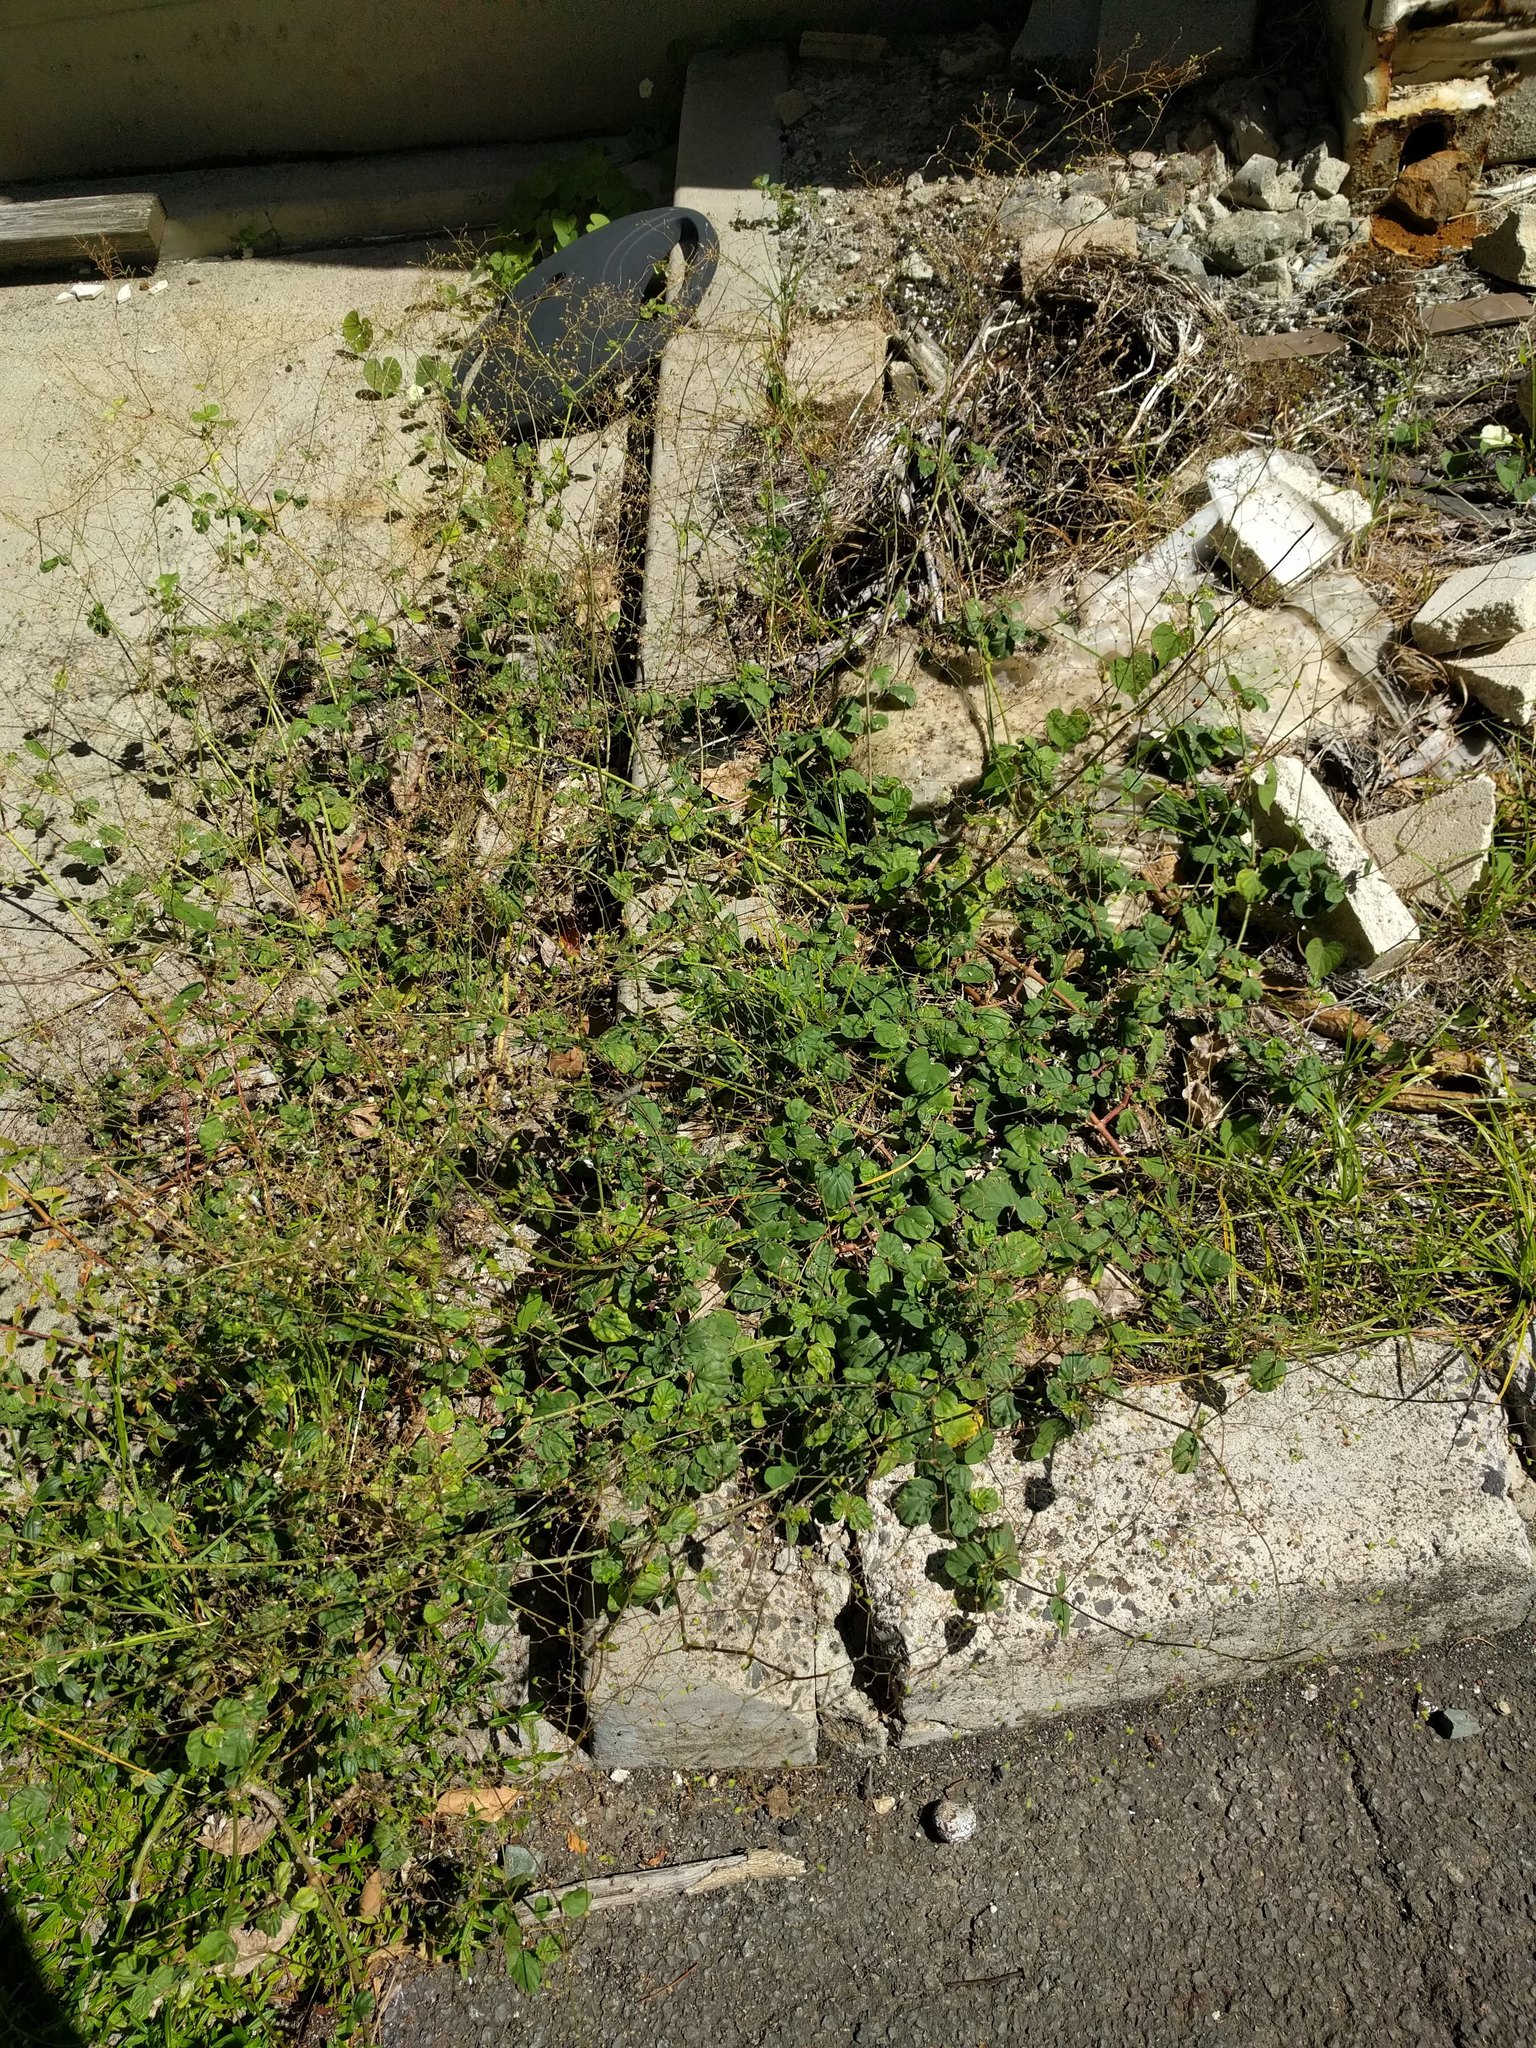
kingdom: Plantae
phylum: Tracheophyta
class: Magnoliopsida
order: Caryophyllales
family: Nyctaginaceae
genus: Boerhavia
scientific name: Boerhavia diffusa
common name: Red spiderling
